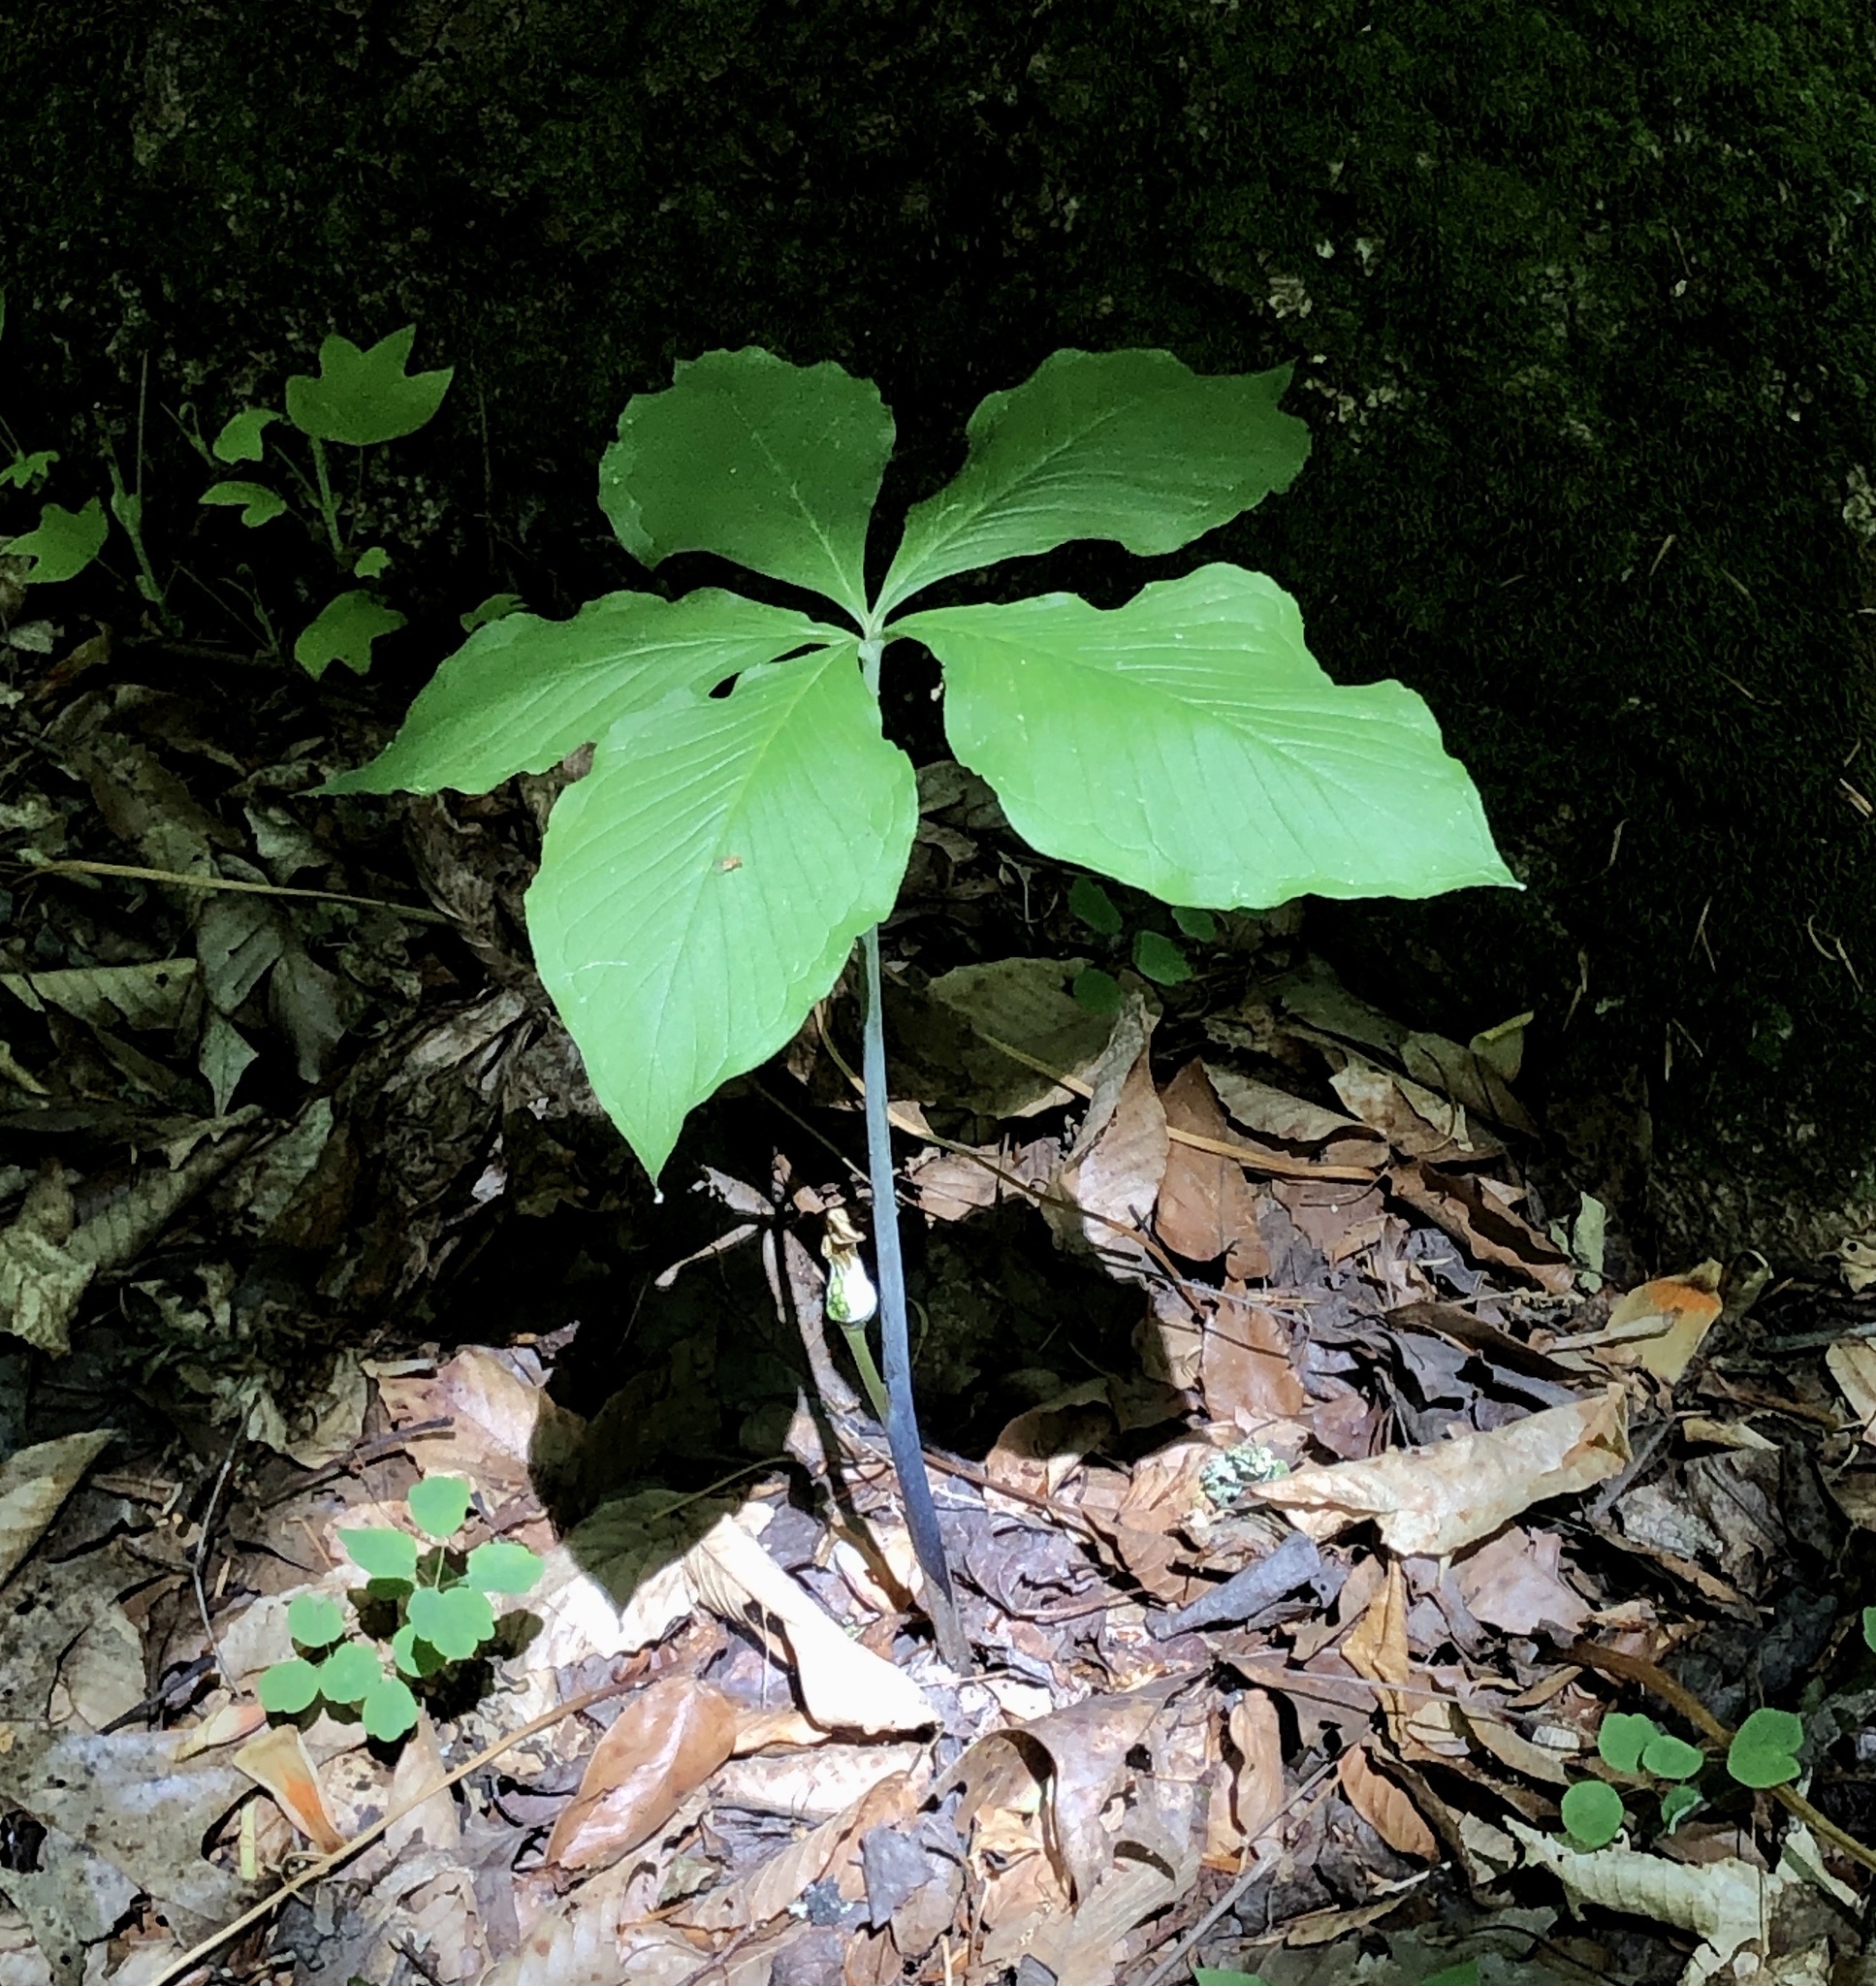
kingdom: Plantae
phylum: Tracheophyta
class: Liliopsida
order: Alismatales
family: Araceae
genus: Arisaema
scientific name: Arisaema quinatum
